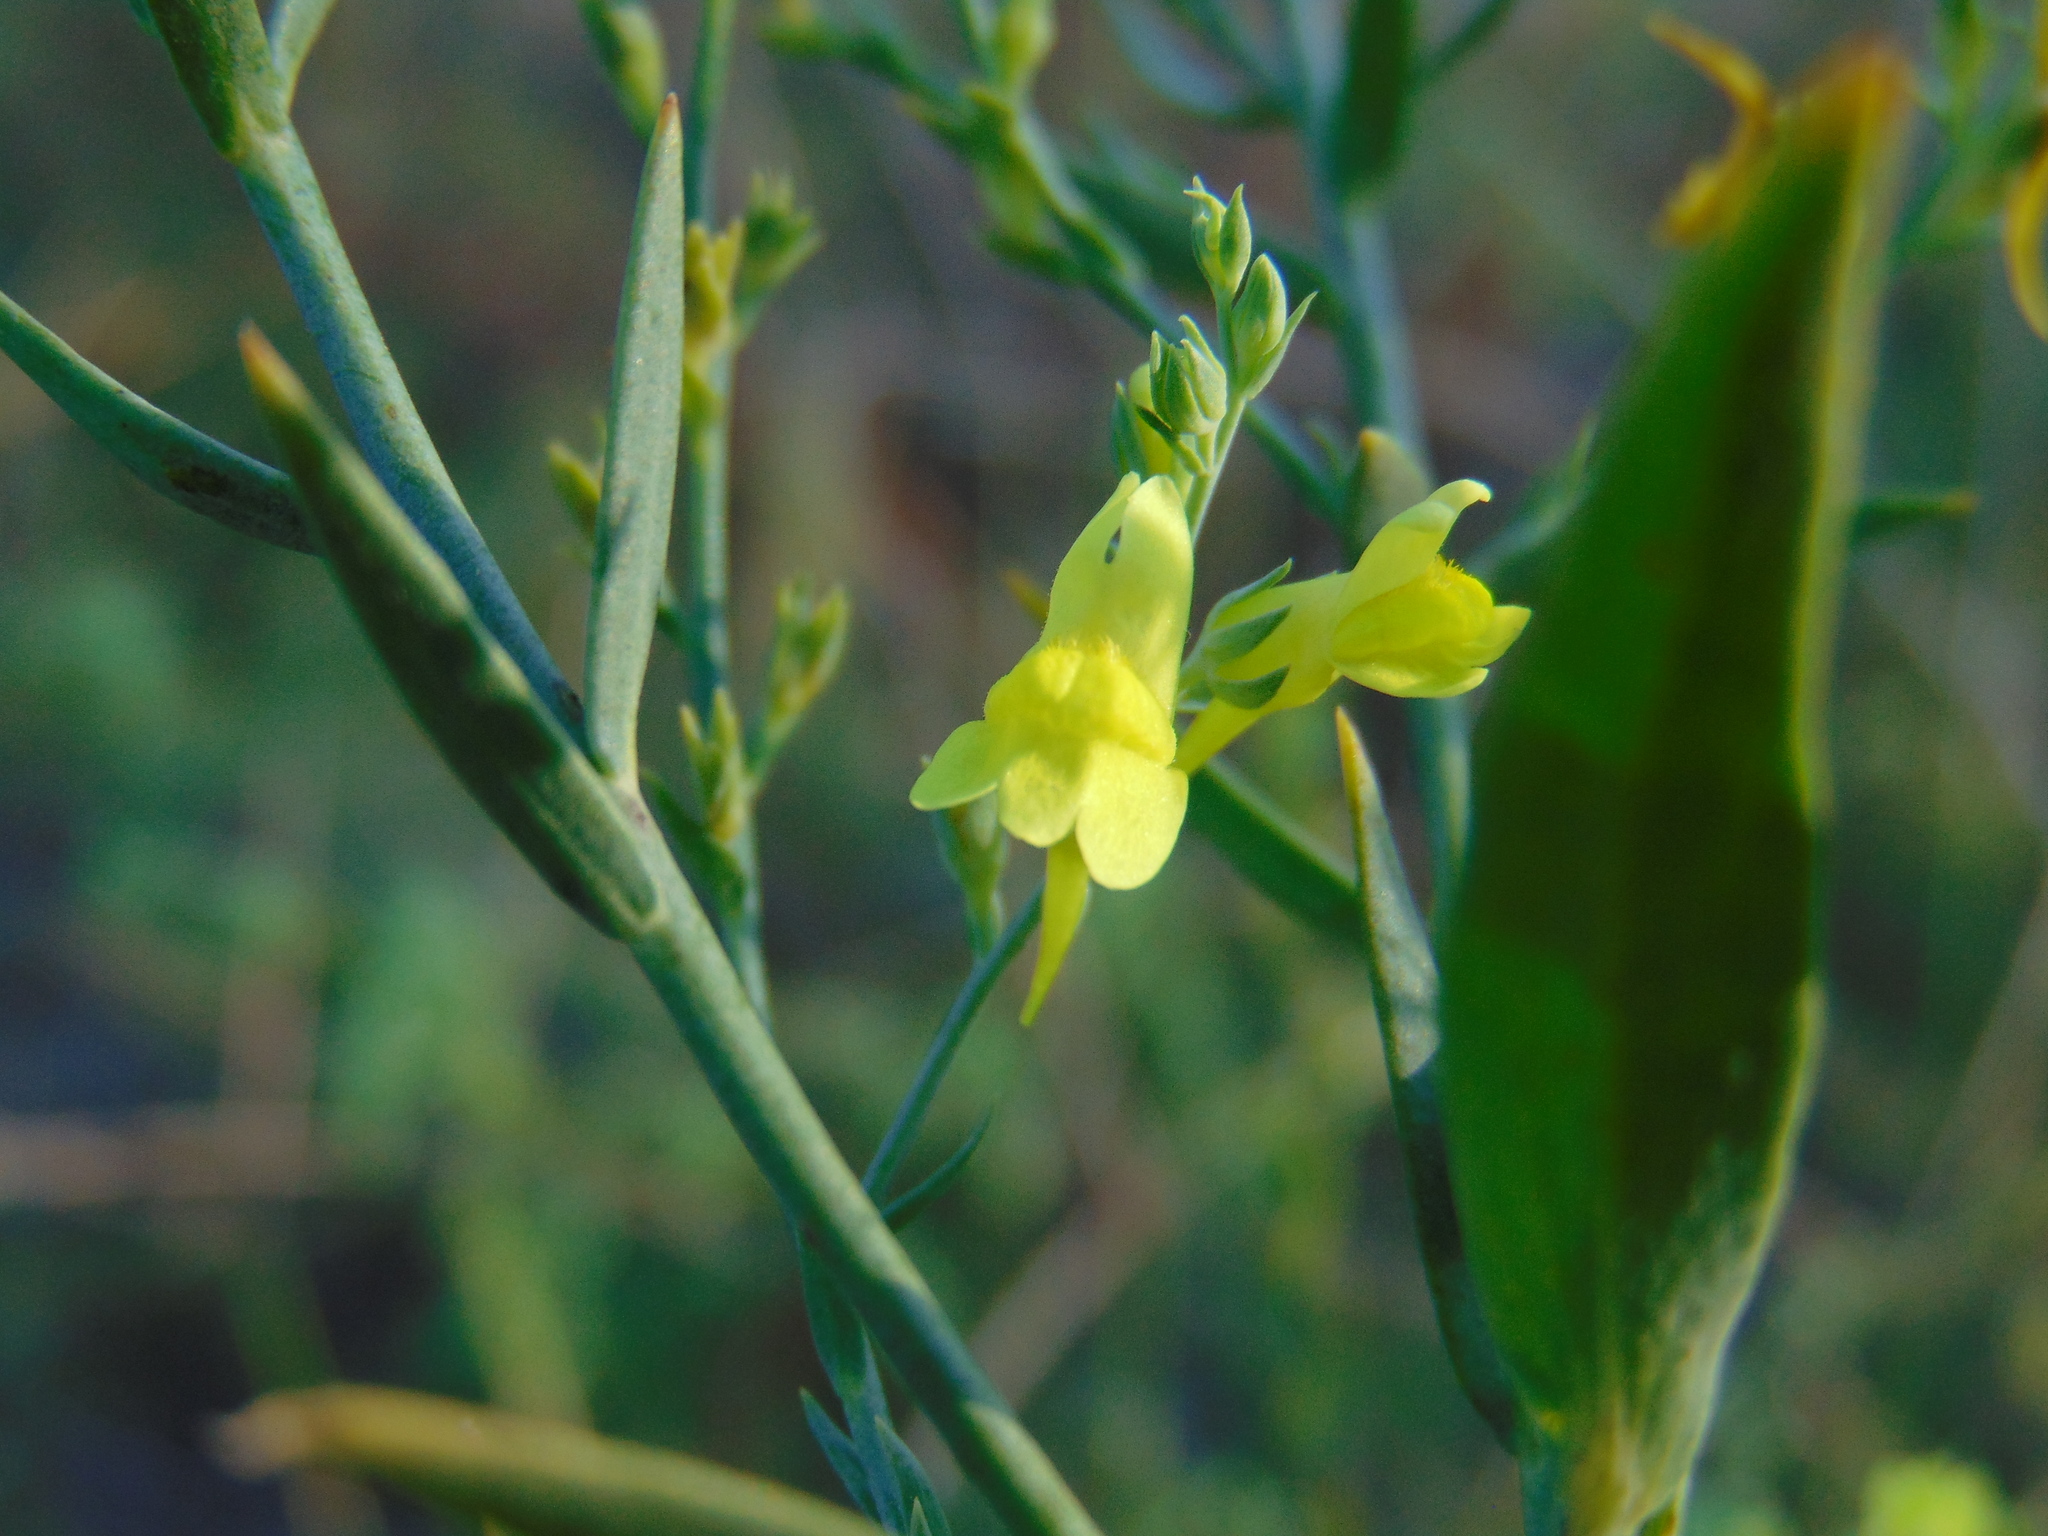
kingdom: Plantae
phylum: Tracheophyta
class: Magnoliopsida
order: Lamiales
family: Plantaginaceae
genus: Linaria
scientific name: Linaria genistifolia
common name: Broomleaf toadflax
